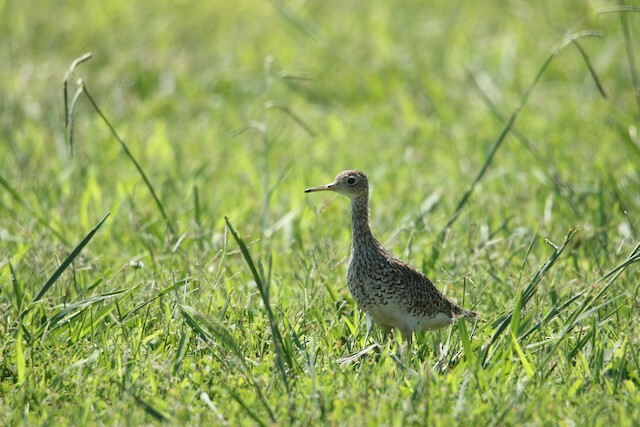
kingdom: Animalia
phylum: Chordata
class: Aves
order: Charadriiformes
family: Scolopacidae
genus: Bartramia
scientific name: Bartramia longicauda
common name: Upland sandpiper
